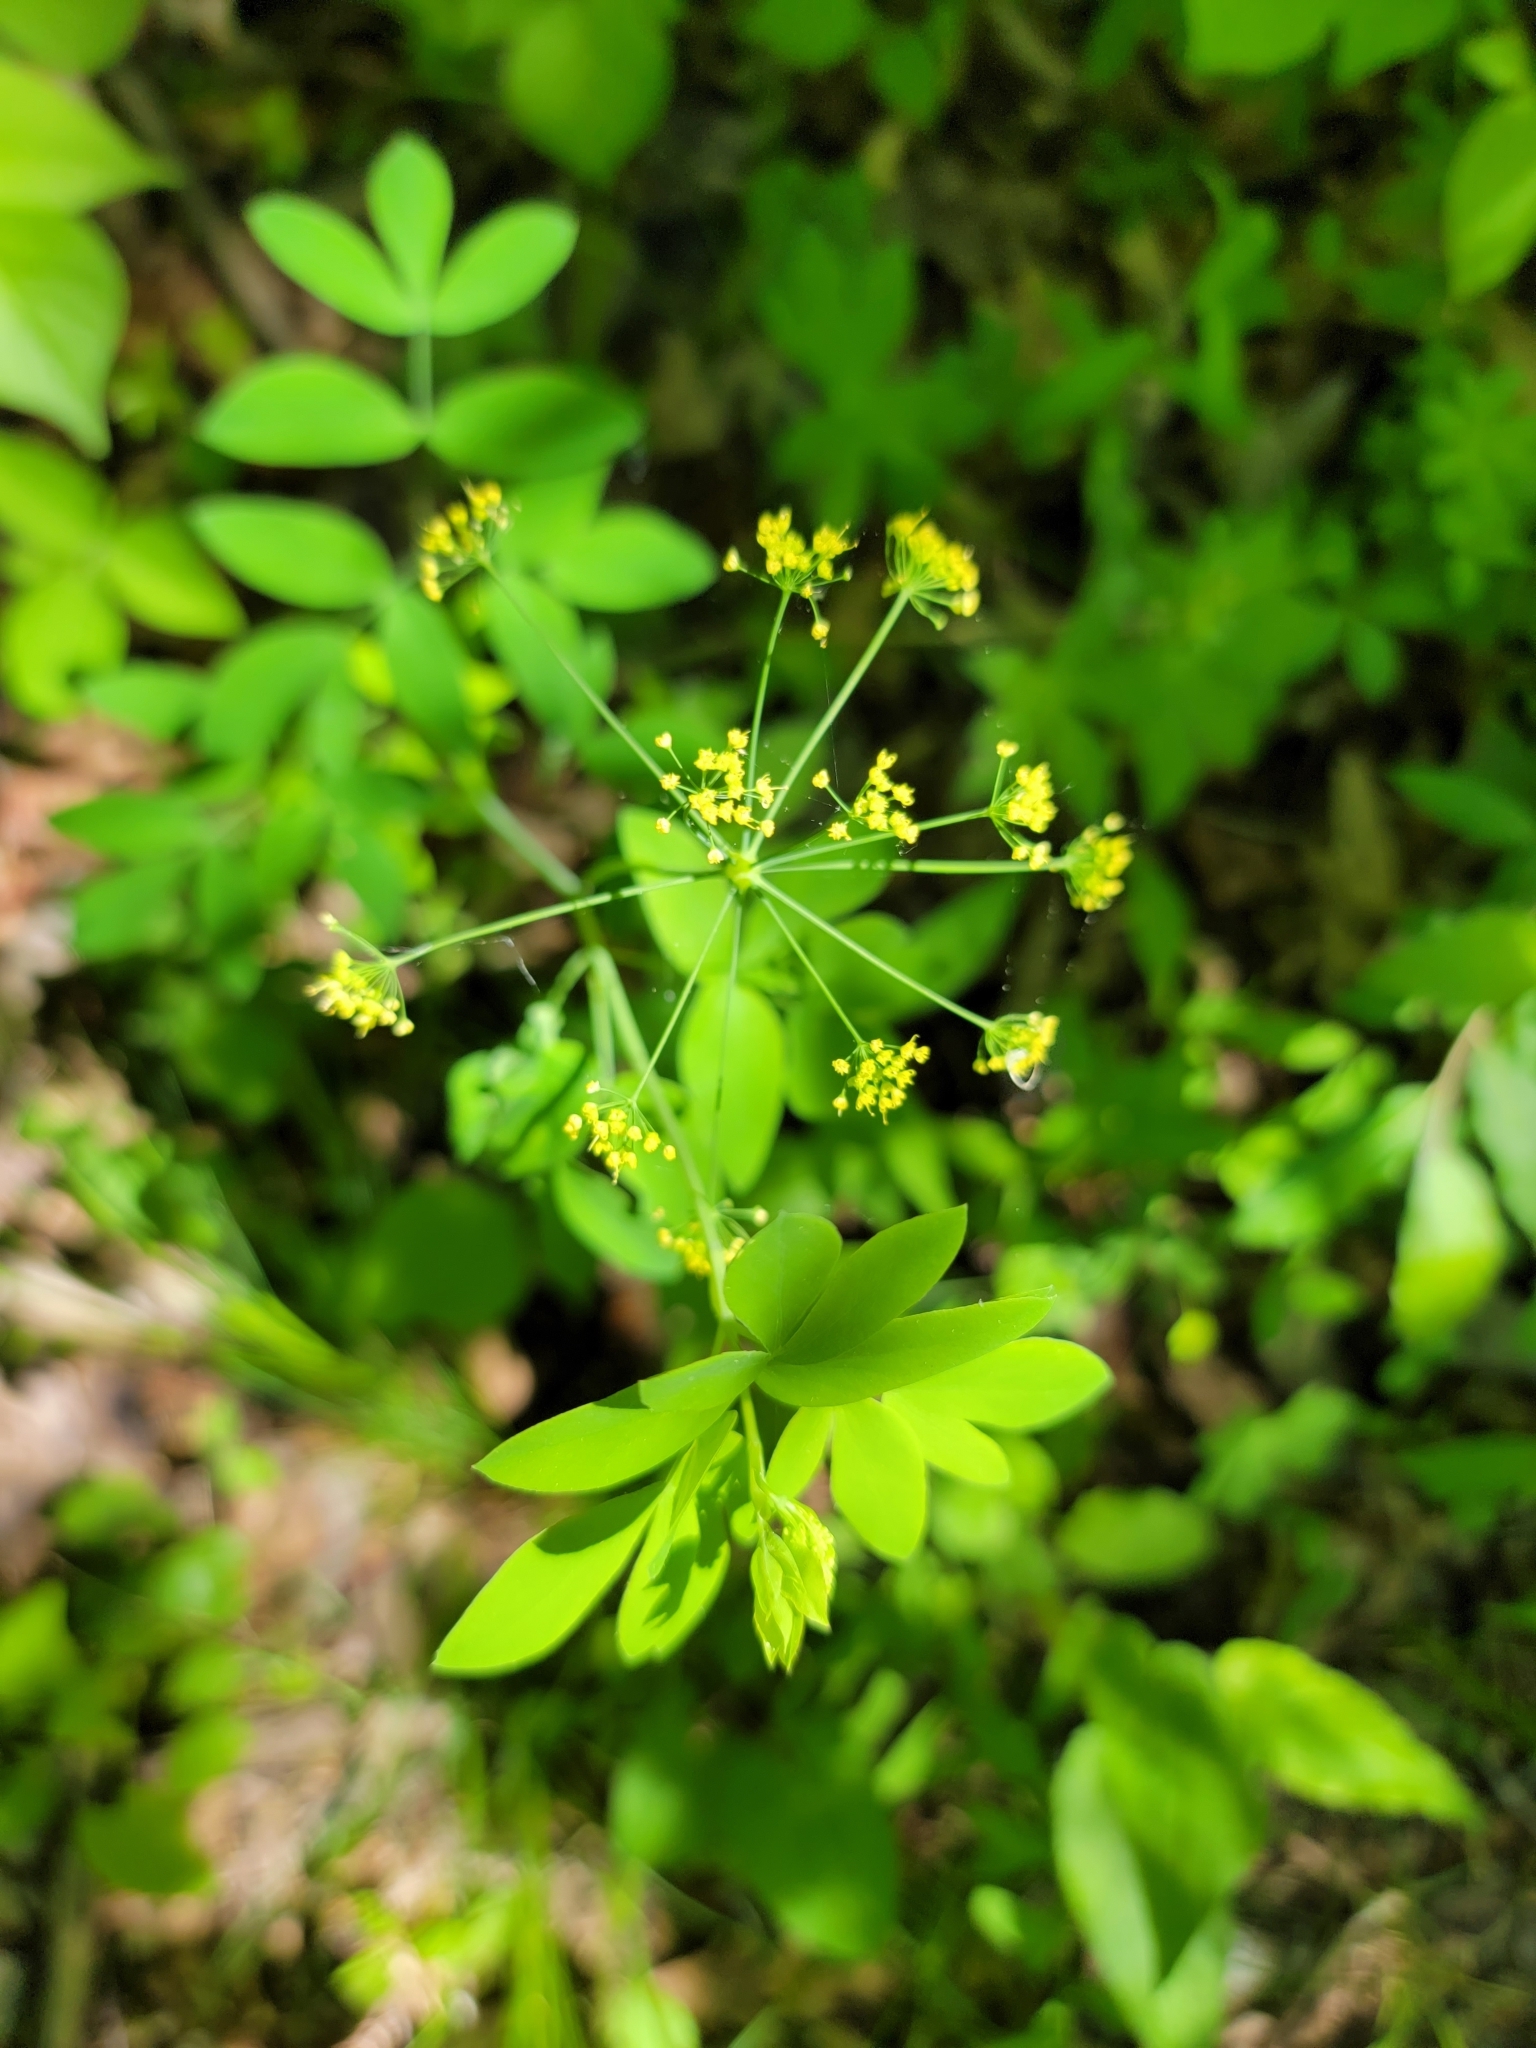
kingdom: Plantae
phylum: Tracheophyta
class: Magnoliopsida
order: Apiales
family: Apiaceae
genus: Taenidia
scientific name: Taenidia integerrima
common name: Golden alexander
